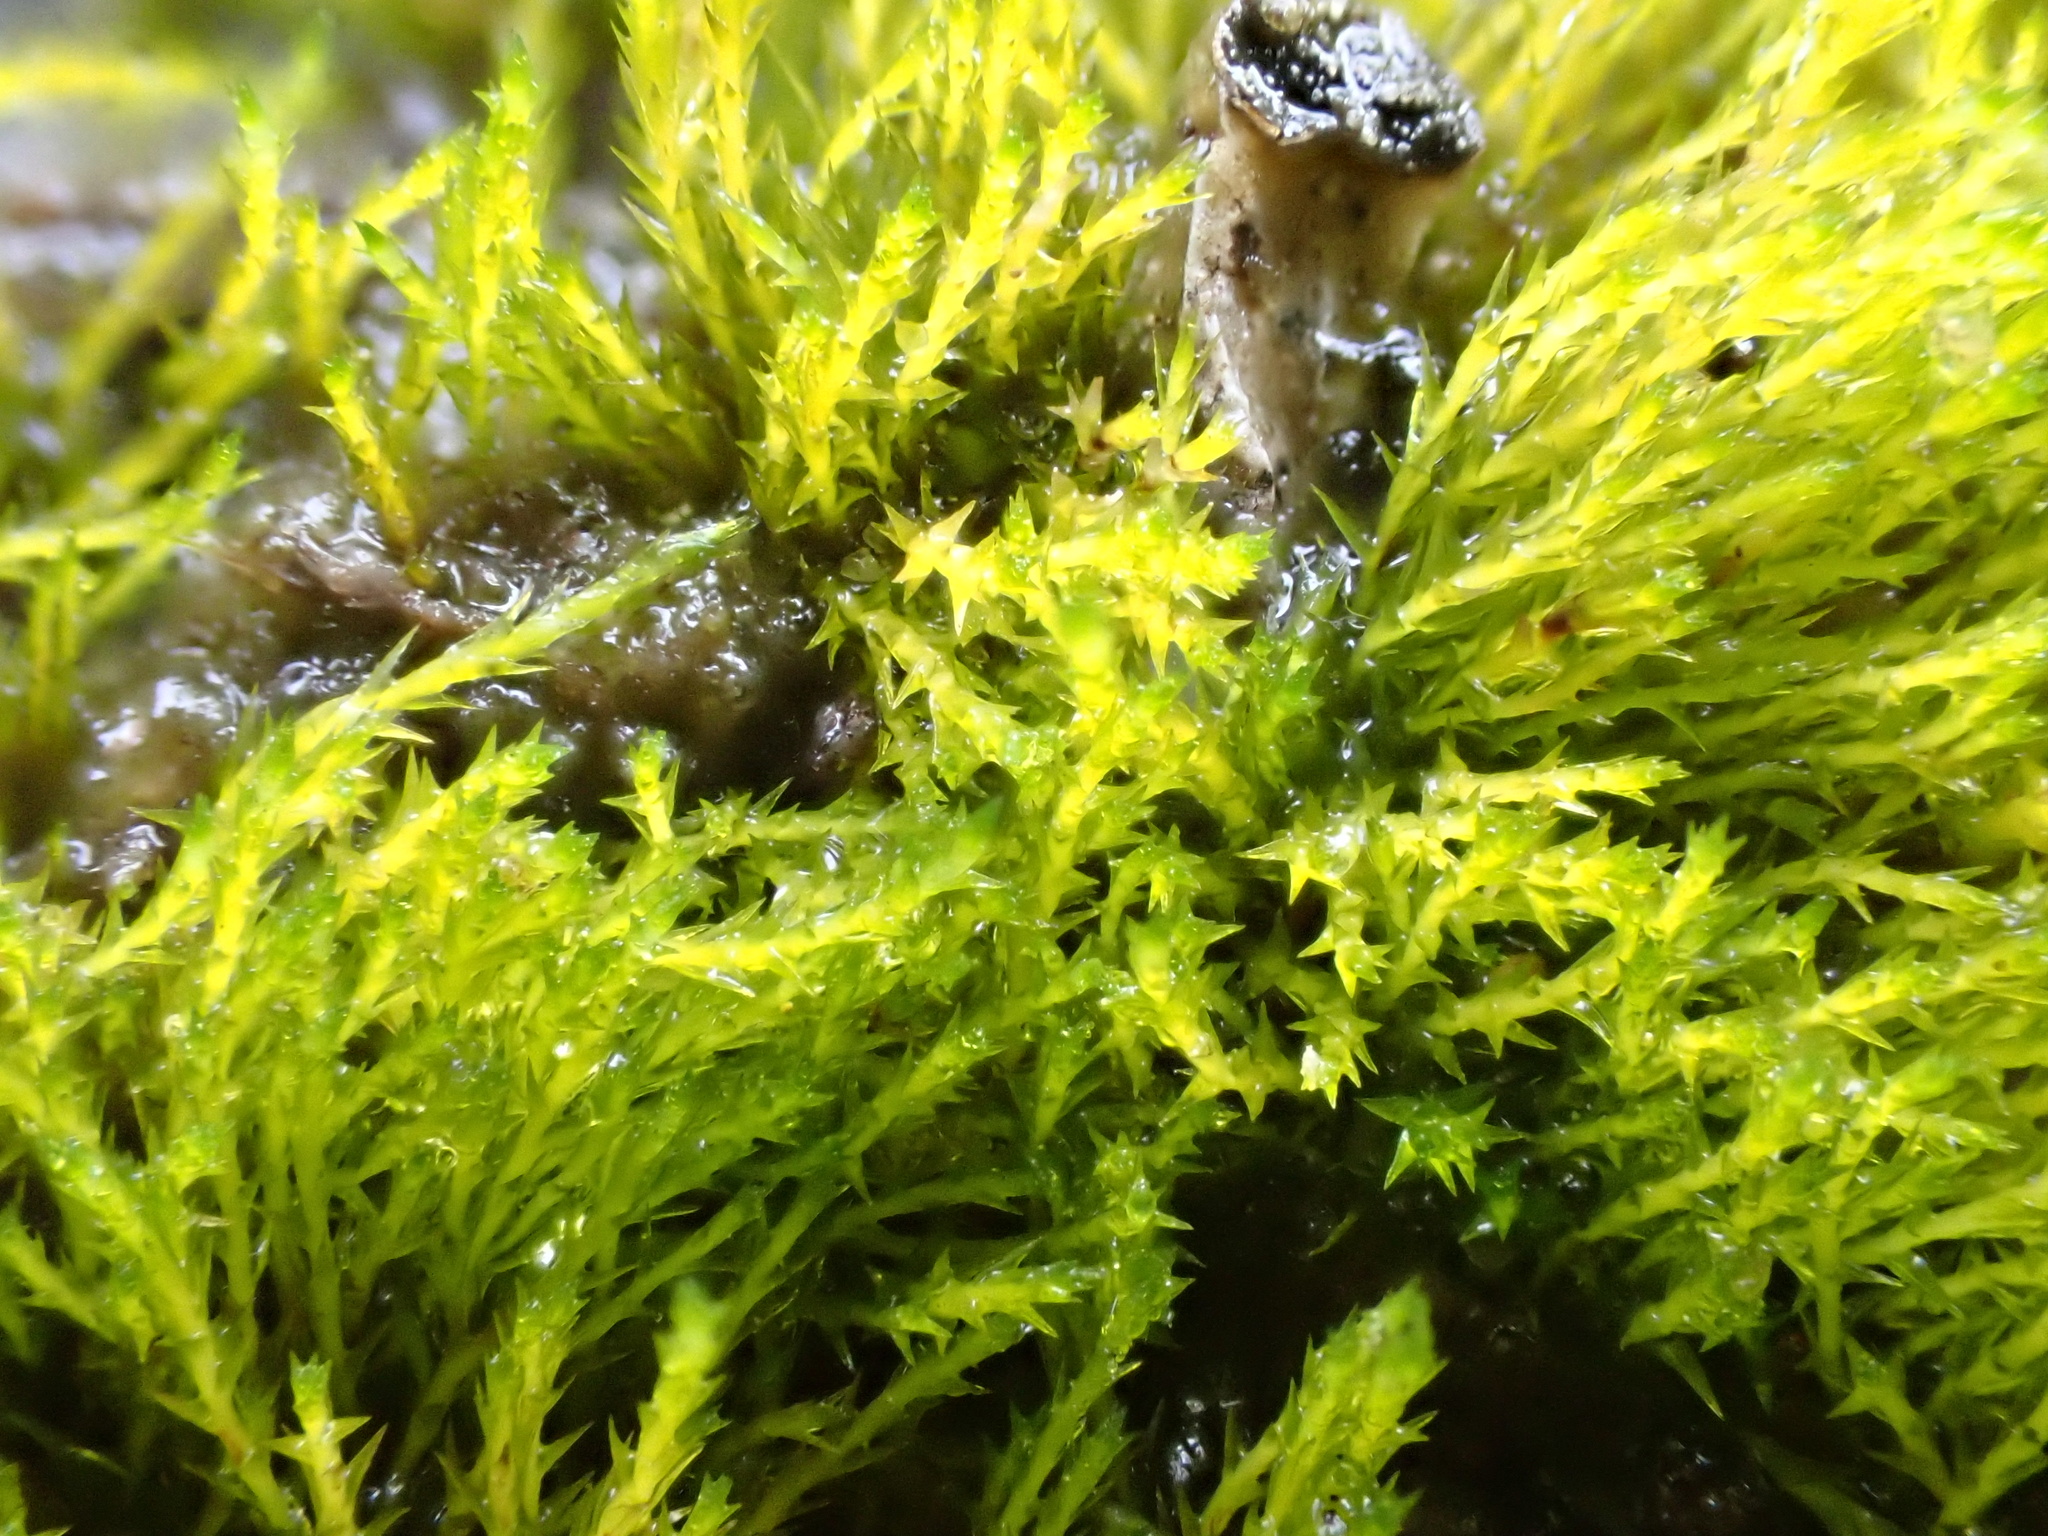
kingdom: Plantae
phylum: Bryophyta
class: Bryopsida
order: Archidiales
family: Archidiaceae
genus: Archidium
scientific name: Archidium alternifolium
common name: Clay earth-moss
